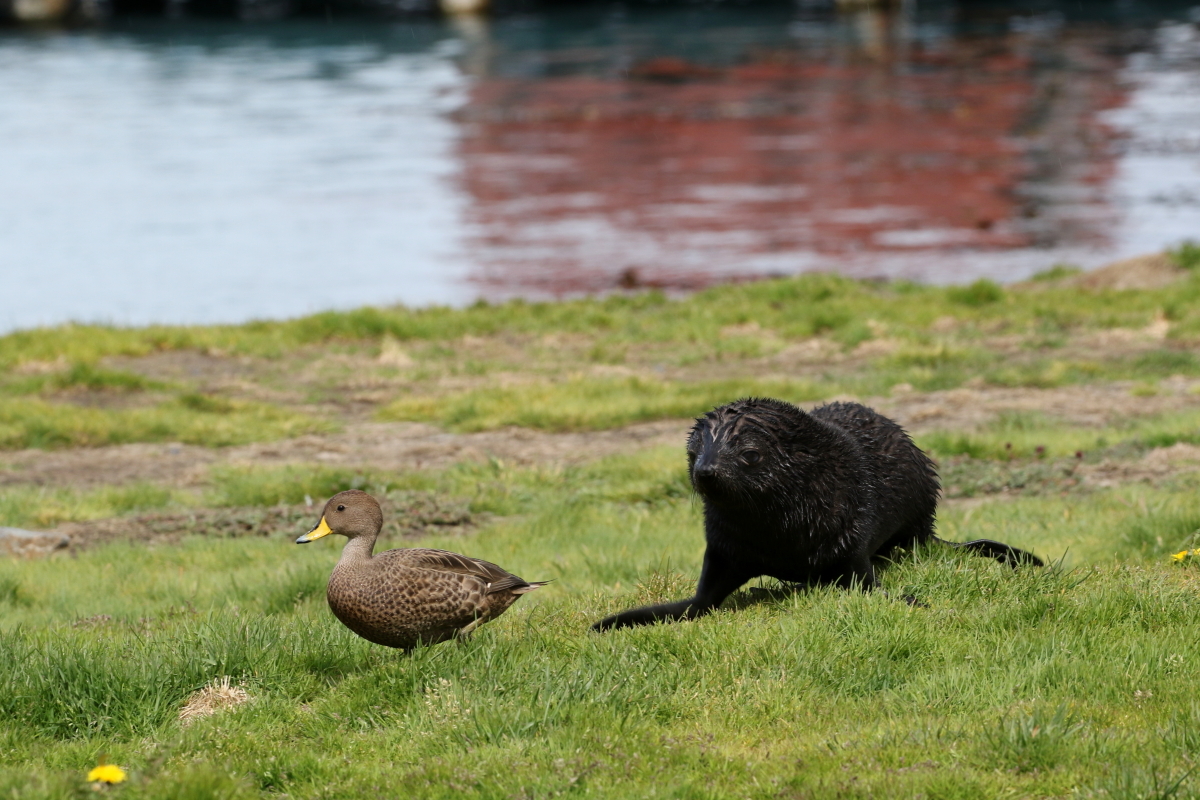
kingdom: Animalia
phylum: Chordata
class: Aves
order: Anseriformes
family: Anatidae
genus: Anas
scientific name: Anas georgica
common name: Yellow-billed pintail
